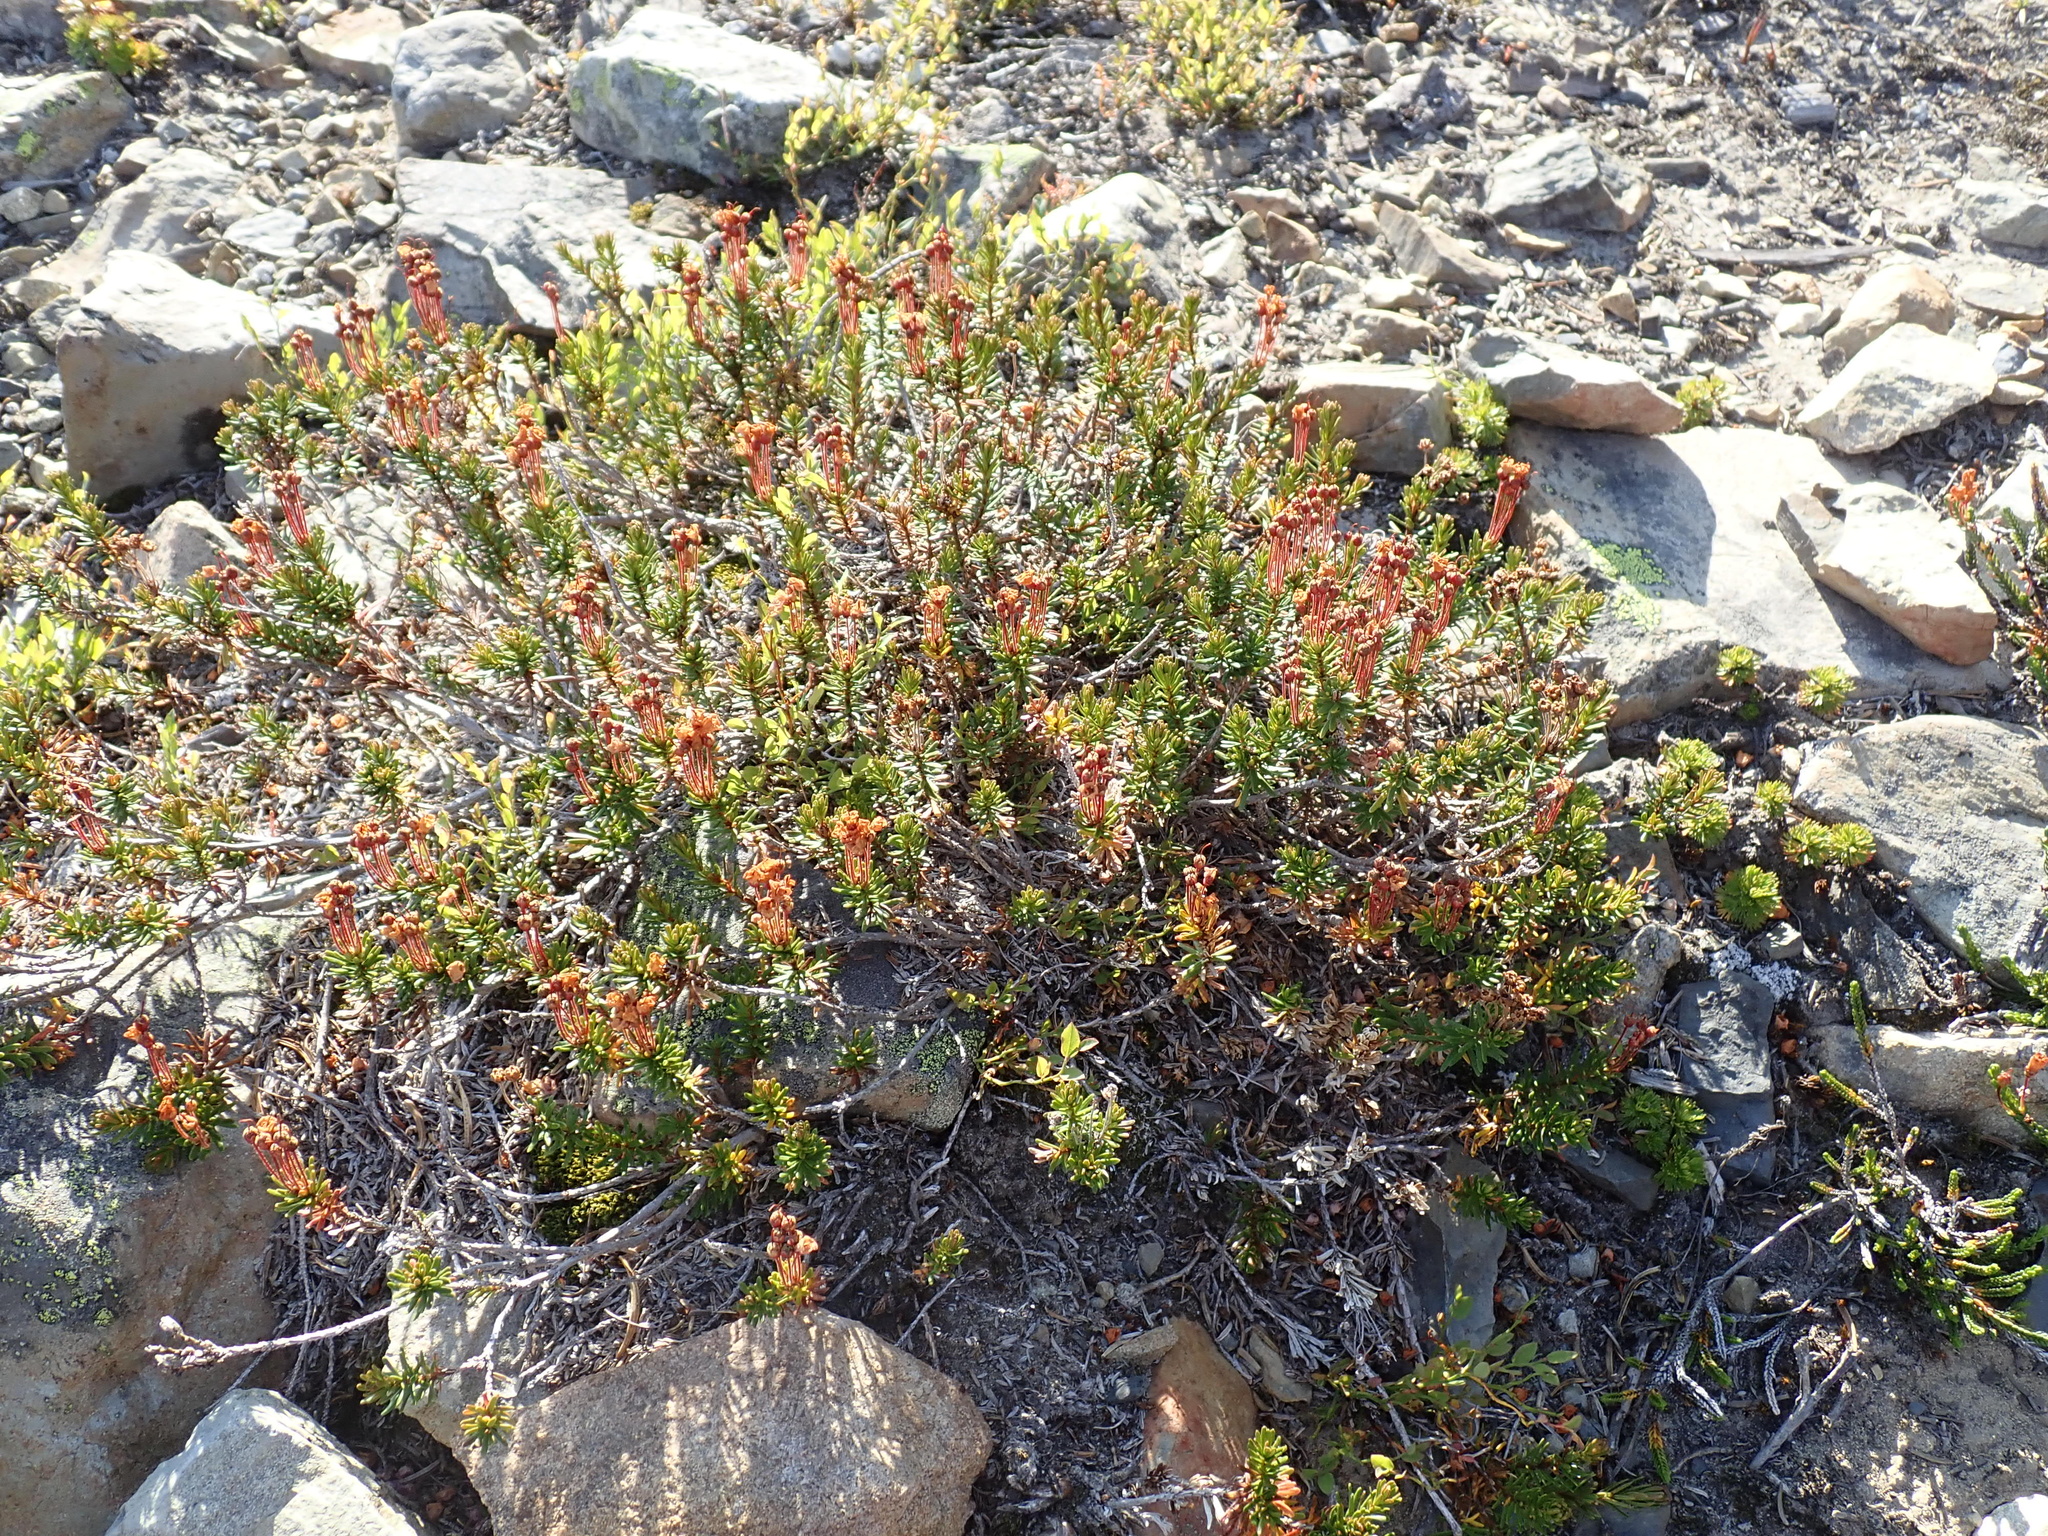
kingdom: Plantae
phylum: Tracheophyta
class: Magnoliopsida
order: Ericales
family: Ericaceae
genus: Phyllodoce
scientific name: Phyllodoce empetriformis
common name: Pink mountain heather
